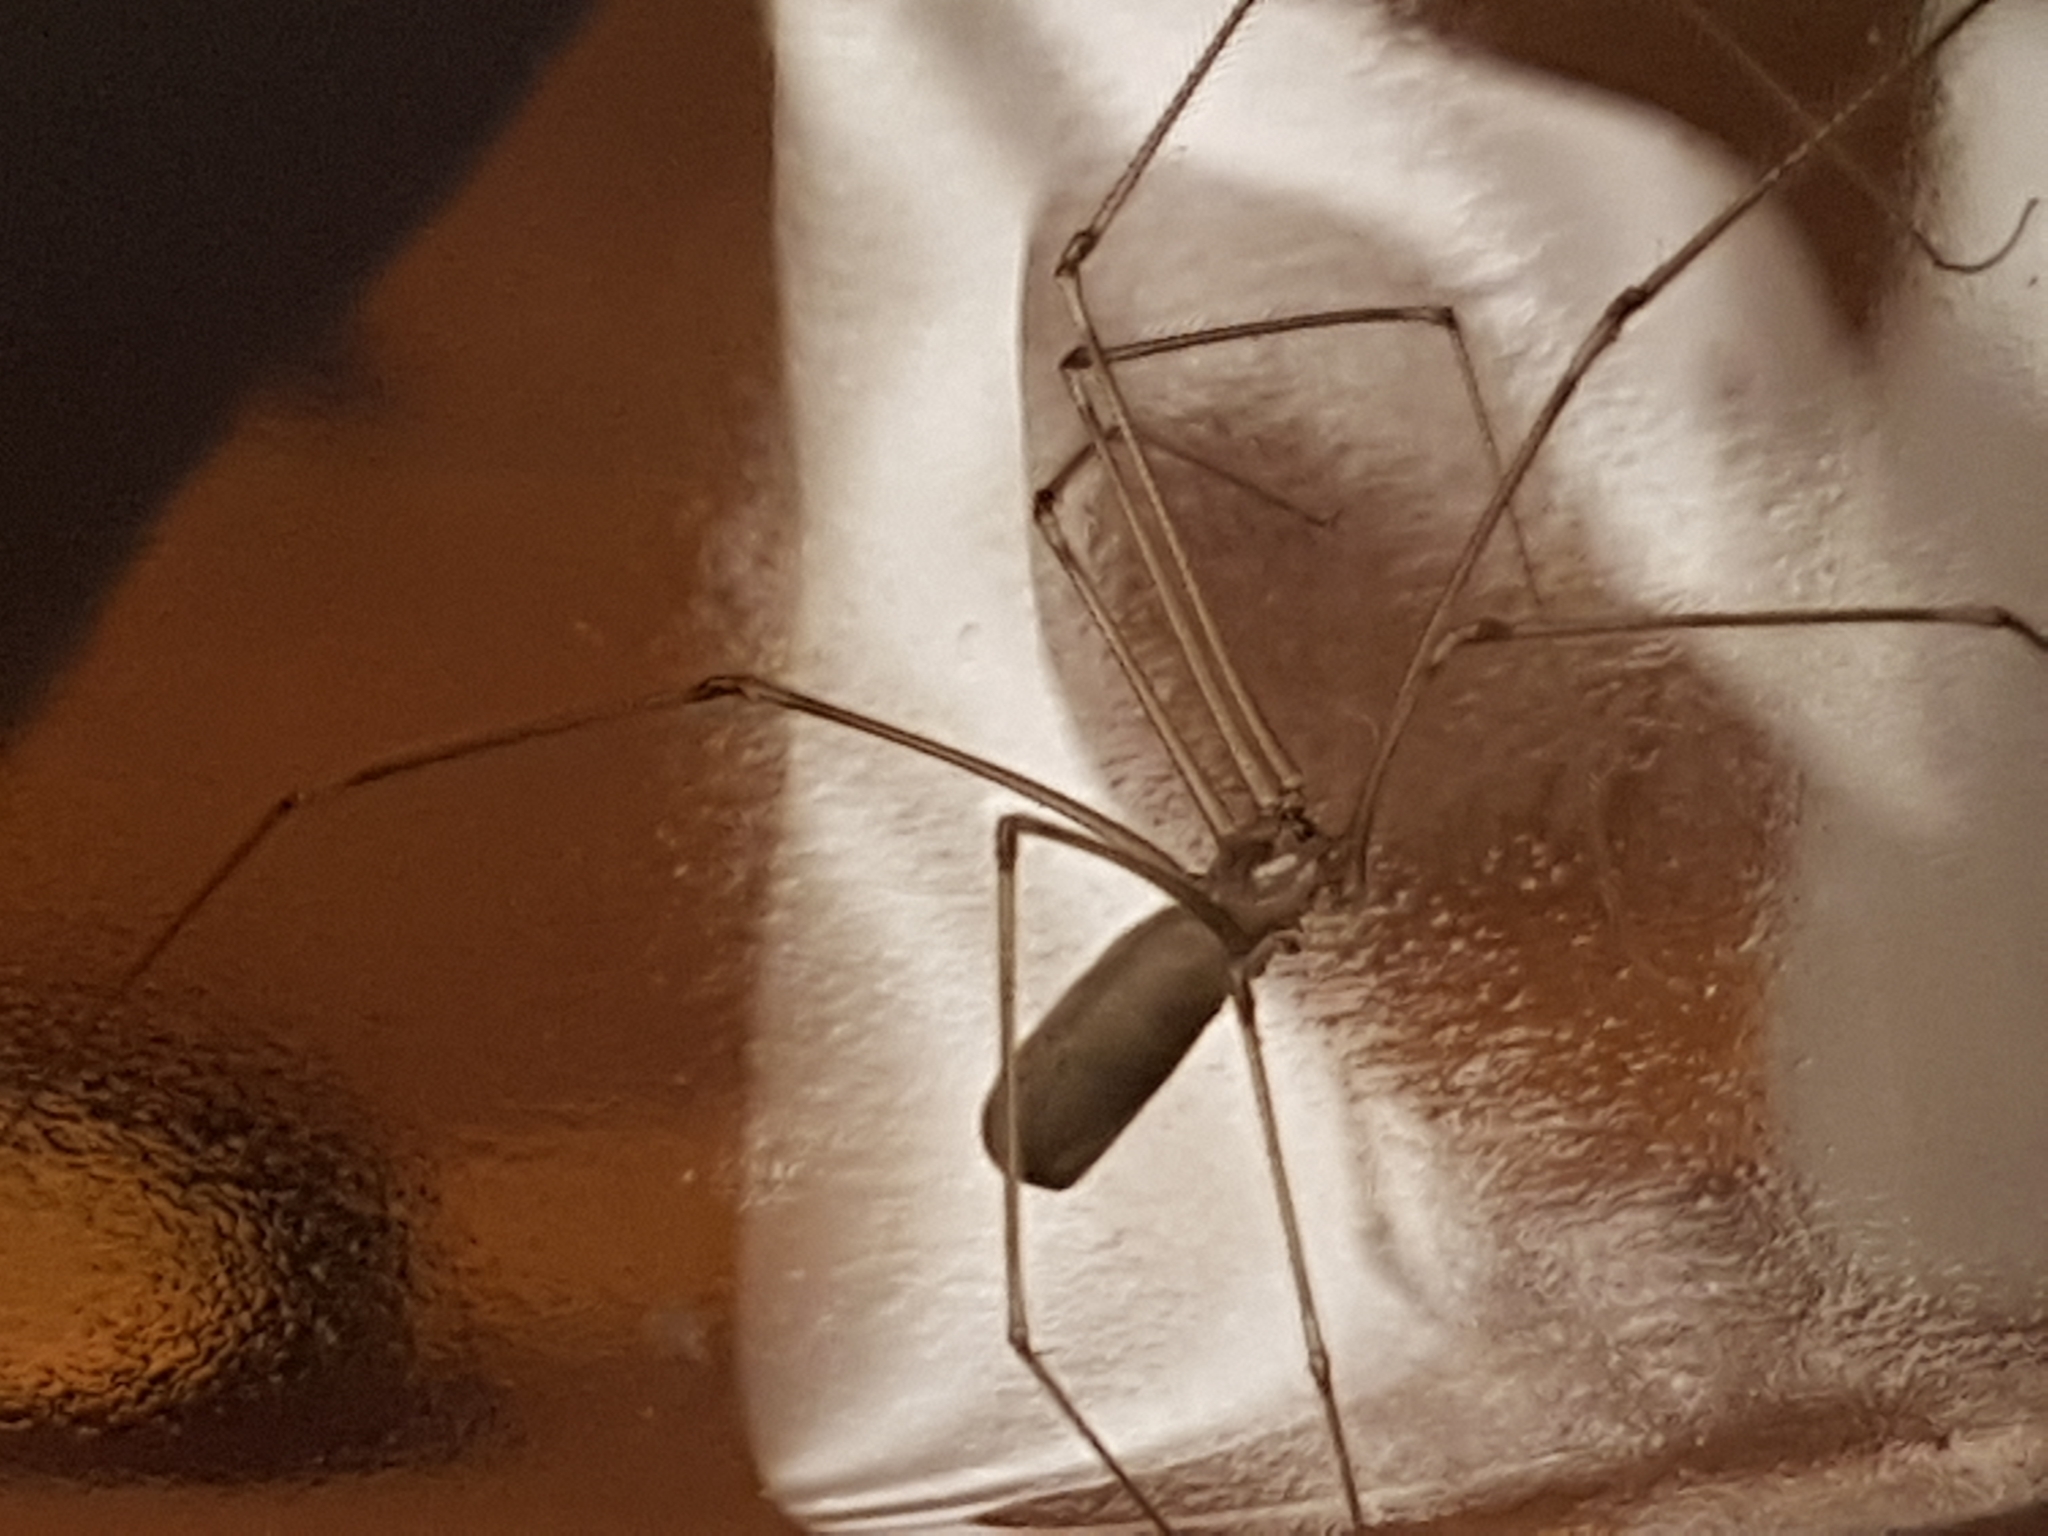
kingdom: Animalia
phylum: Arthropoda
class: Arachnida
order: Araneae
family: Pholcidae
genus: Pholcus
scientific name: Pholcus phalangioides
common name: Longbodied cellar spider
